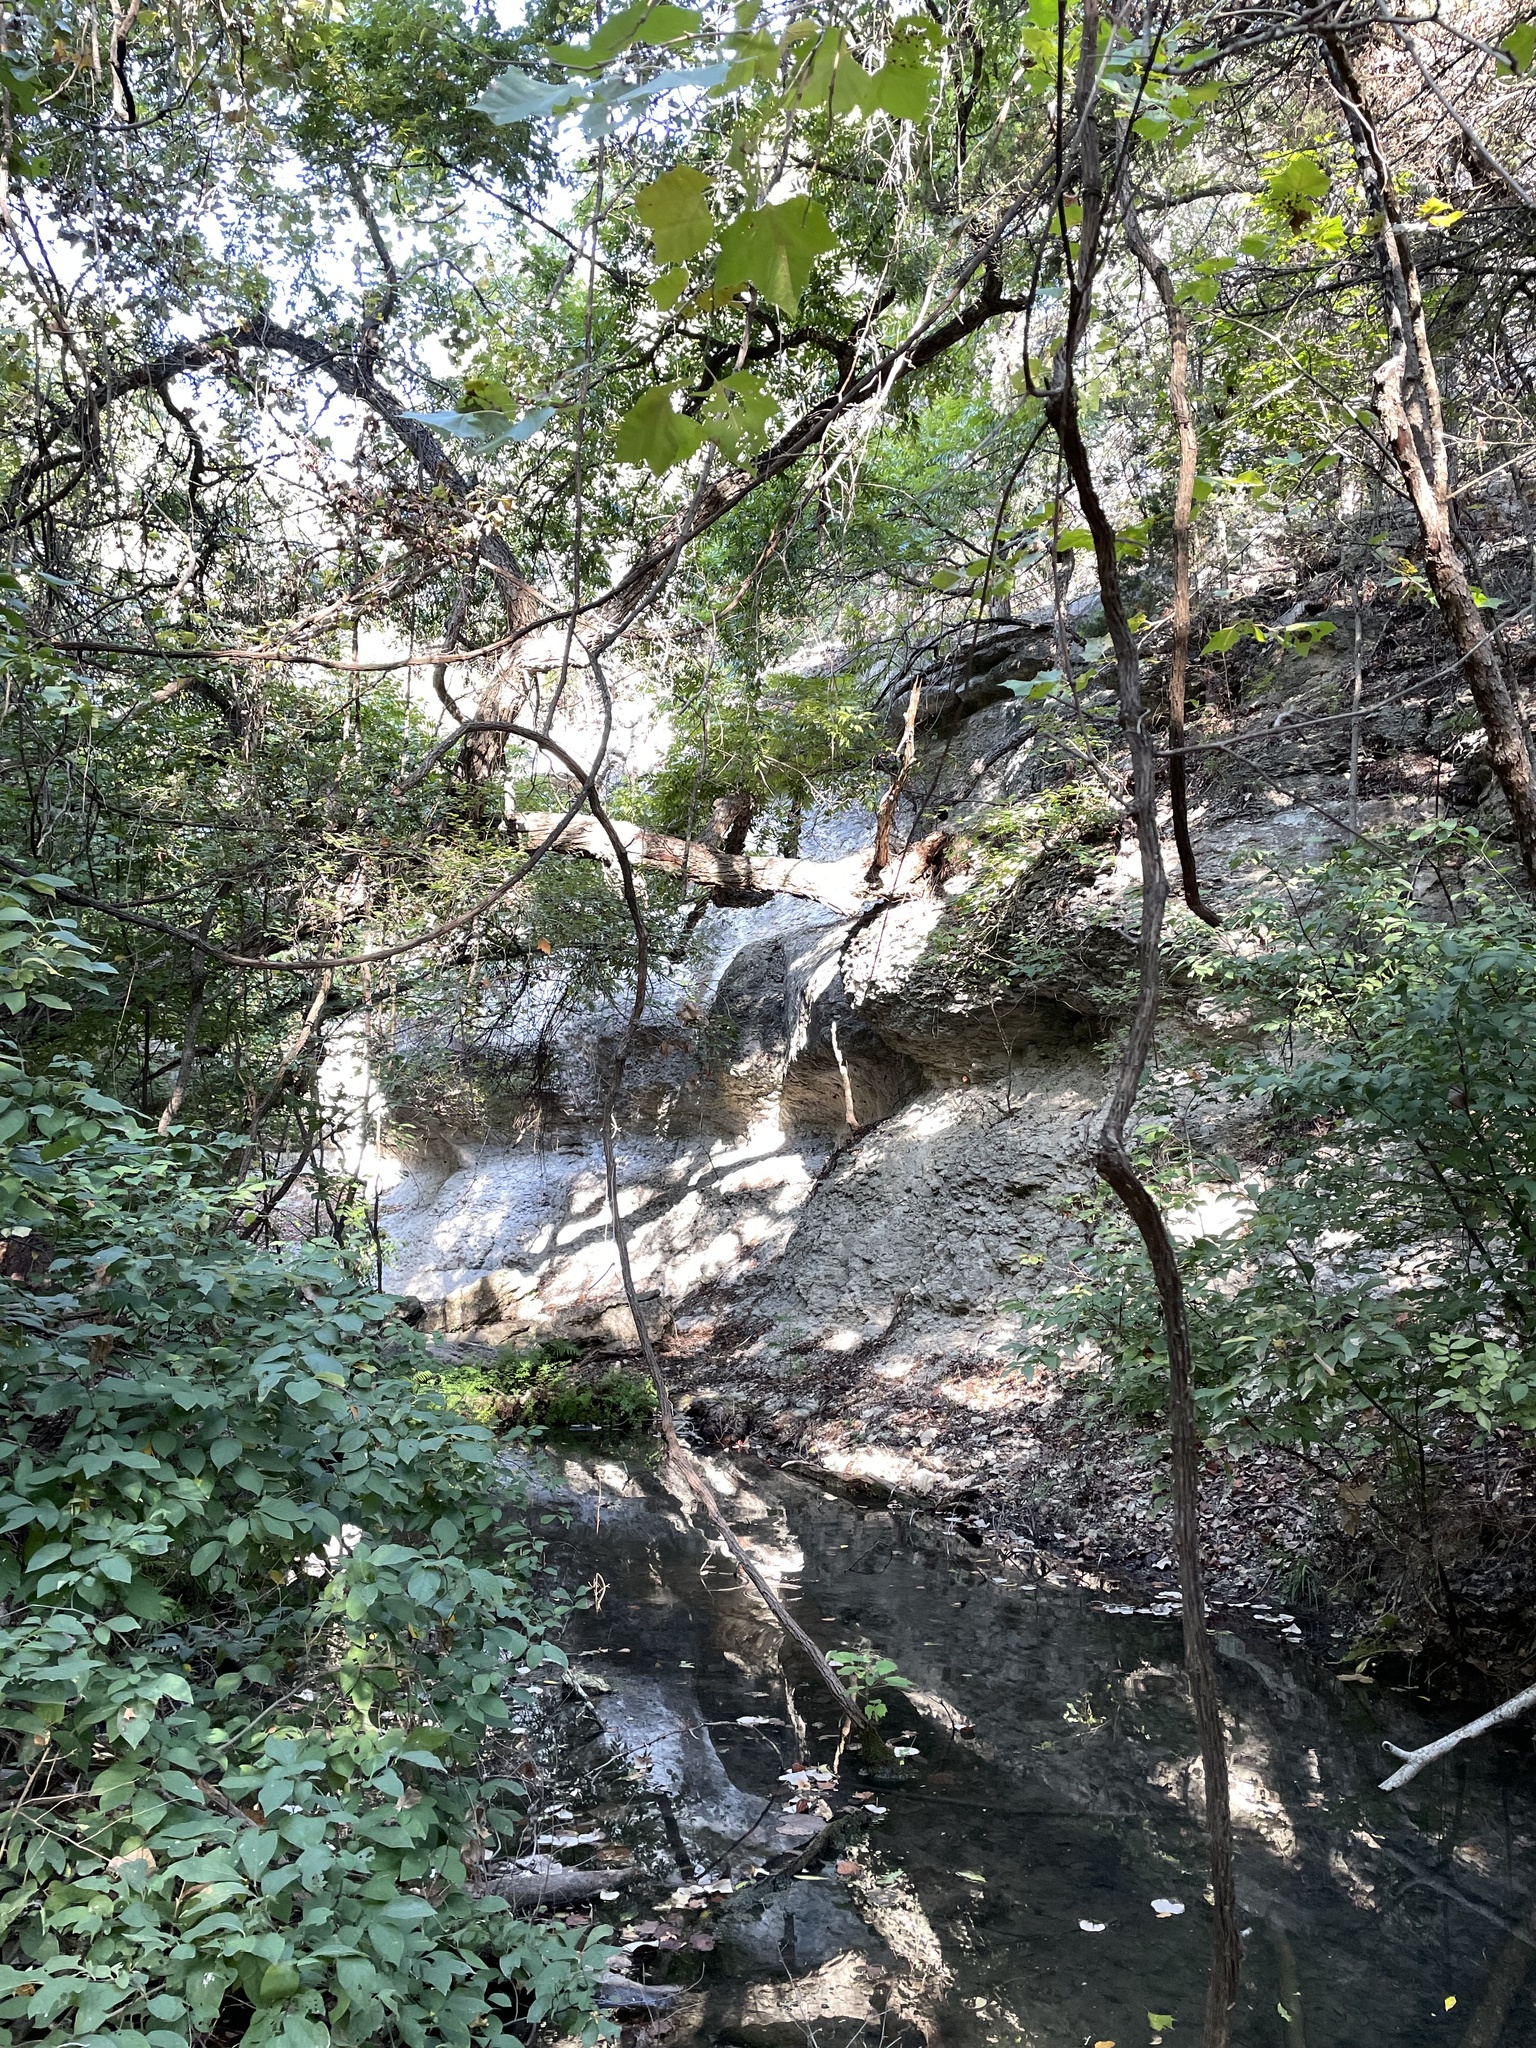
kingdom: Plantae
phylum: Tracheophyta
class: Magnoliopsida
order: Laurales
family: Lauraceae
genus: Lindera
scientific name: Lindera benzoin
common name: Spicebush
